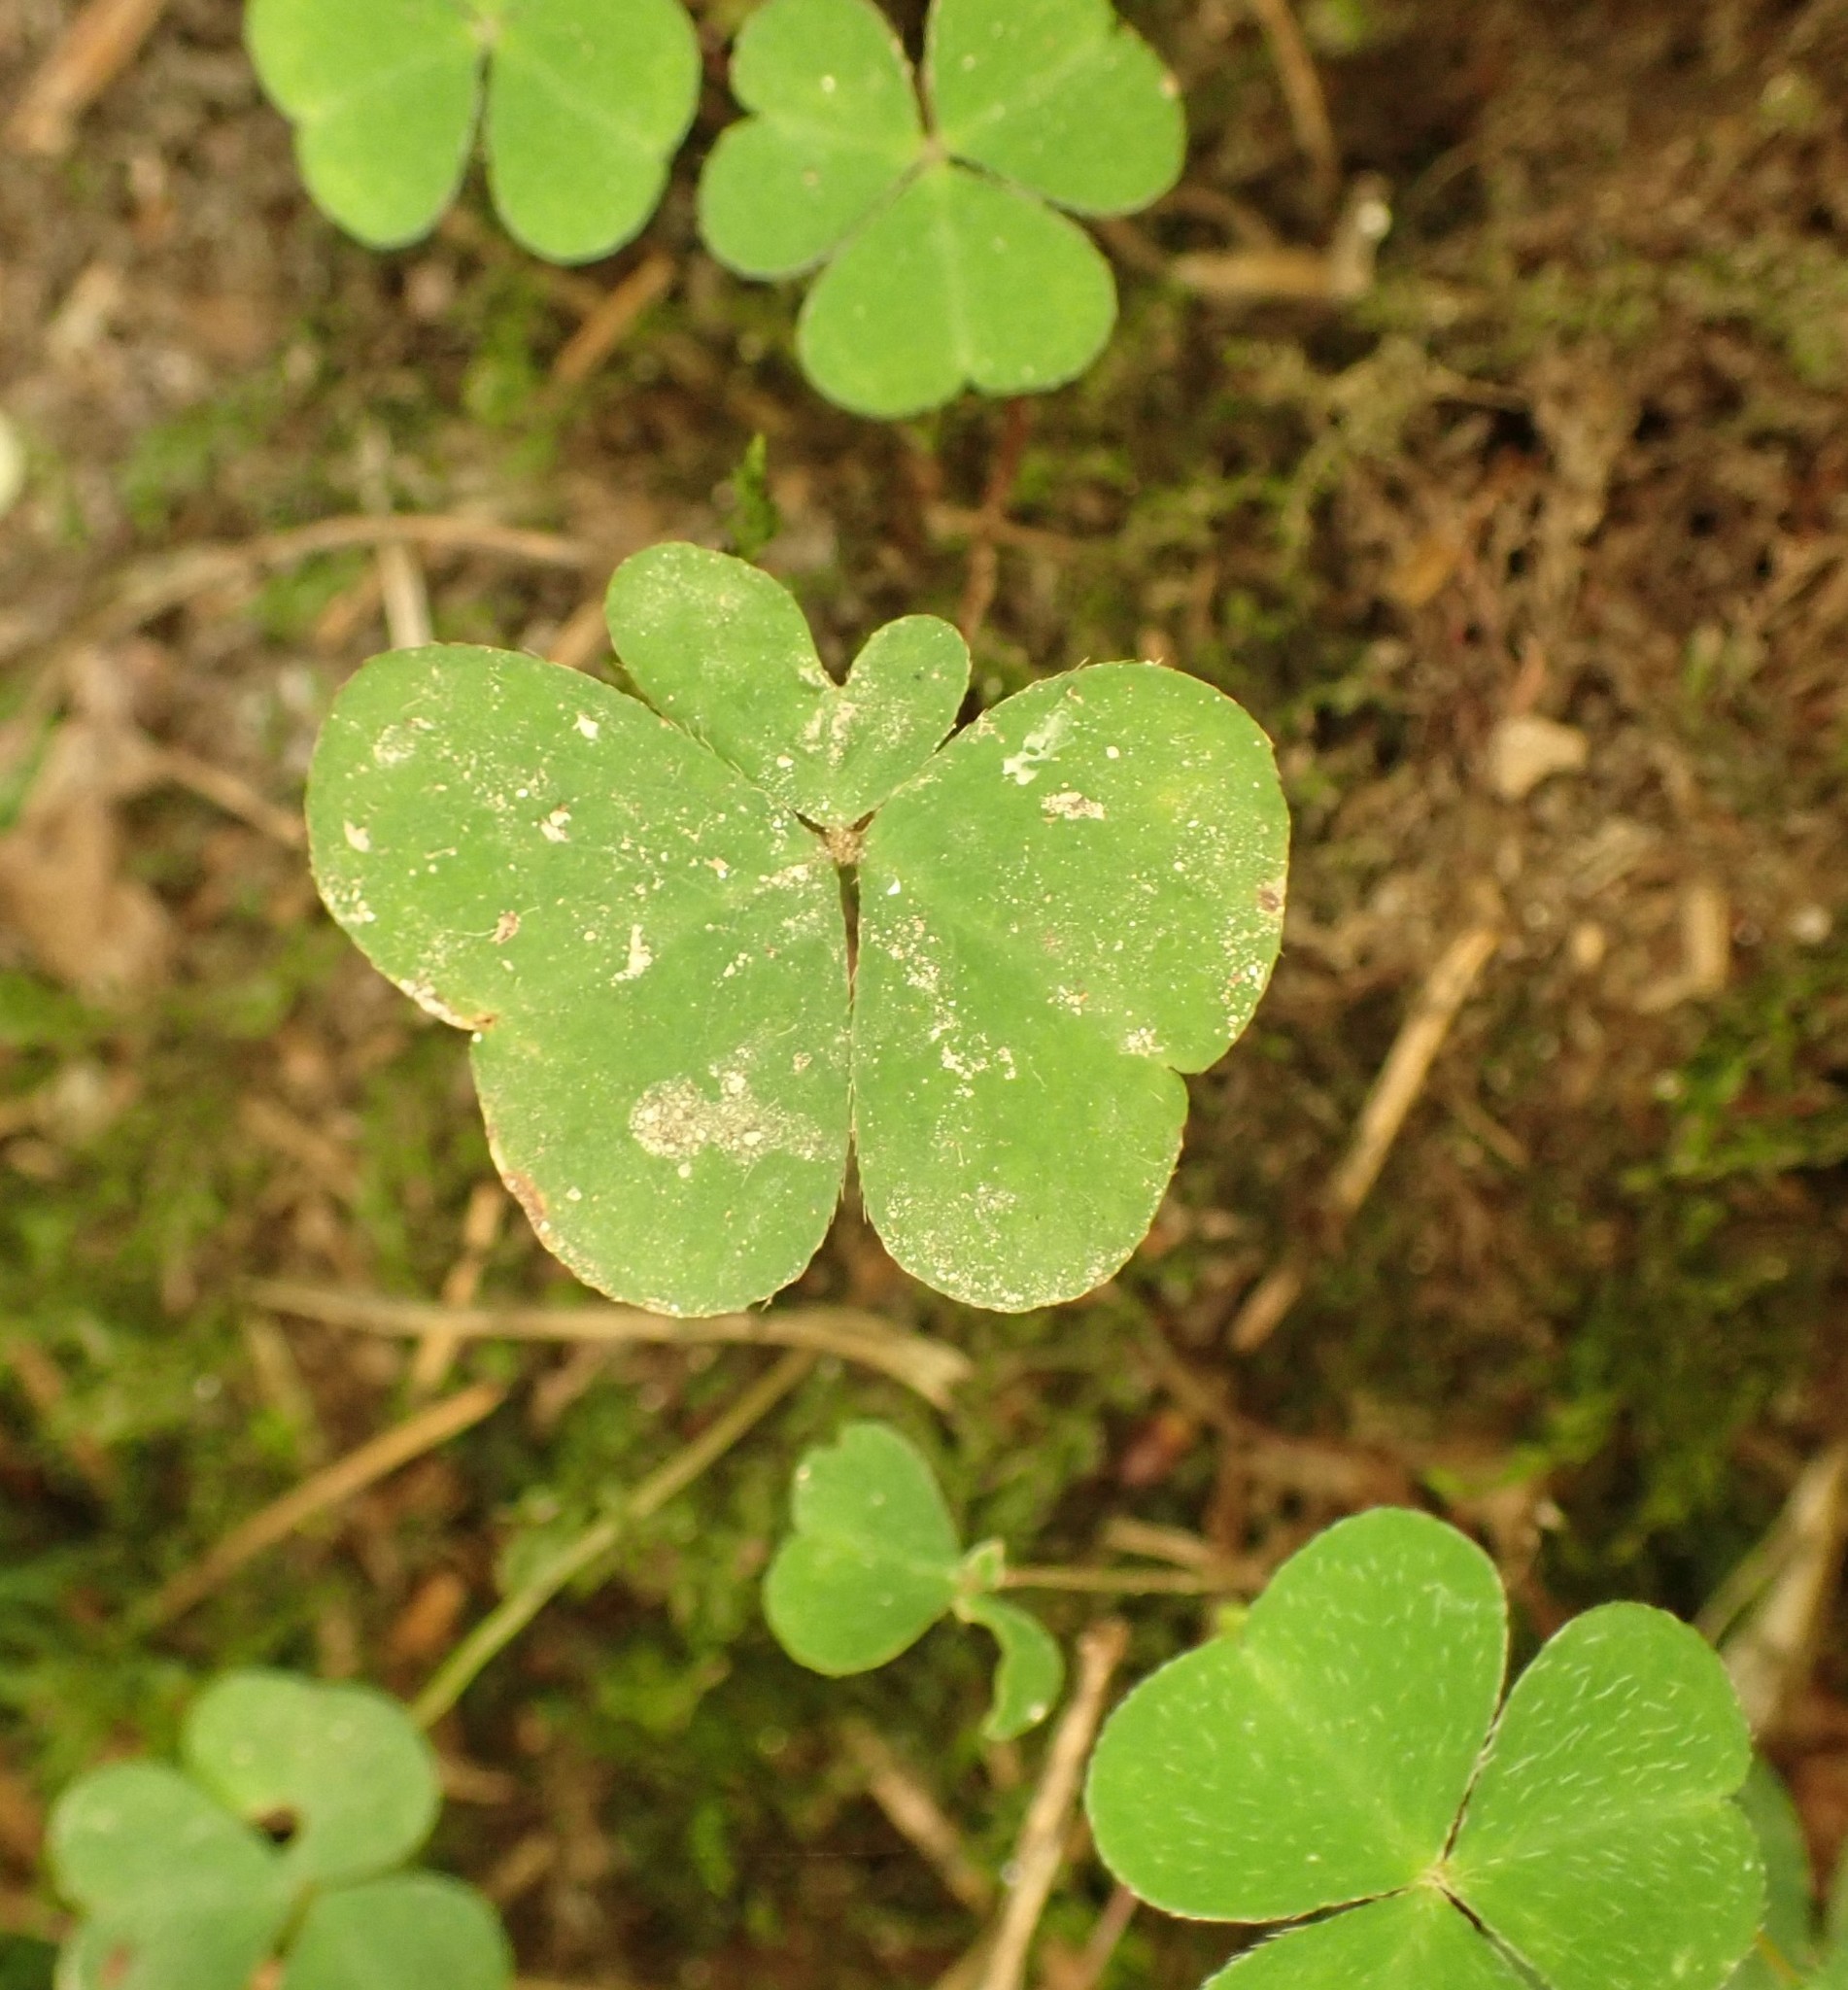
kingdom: Plantae
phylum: Tracheophyta
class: Magnoliopsida
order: Oxalidales
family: Oxalidaceae
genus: Oxalis
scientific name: Oxalis acetosella
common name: Wood-sorrel
